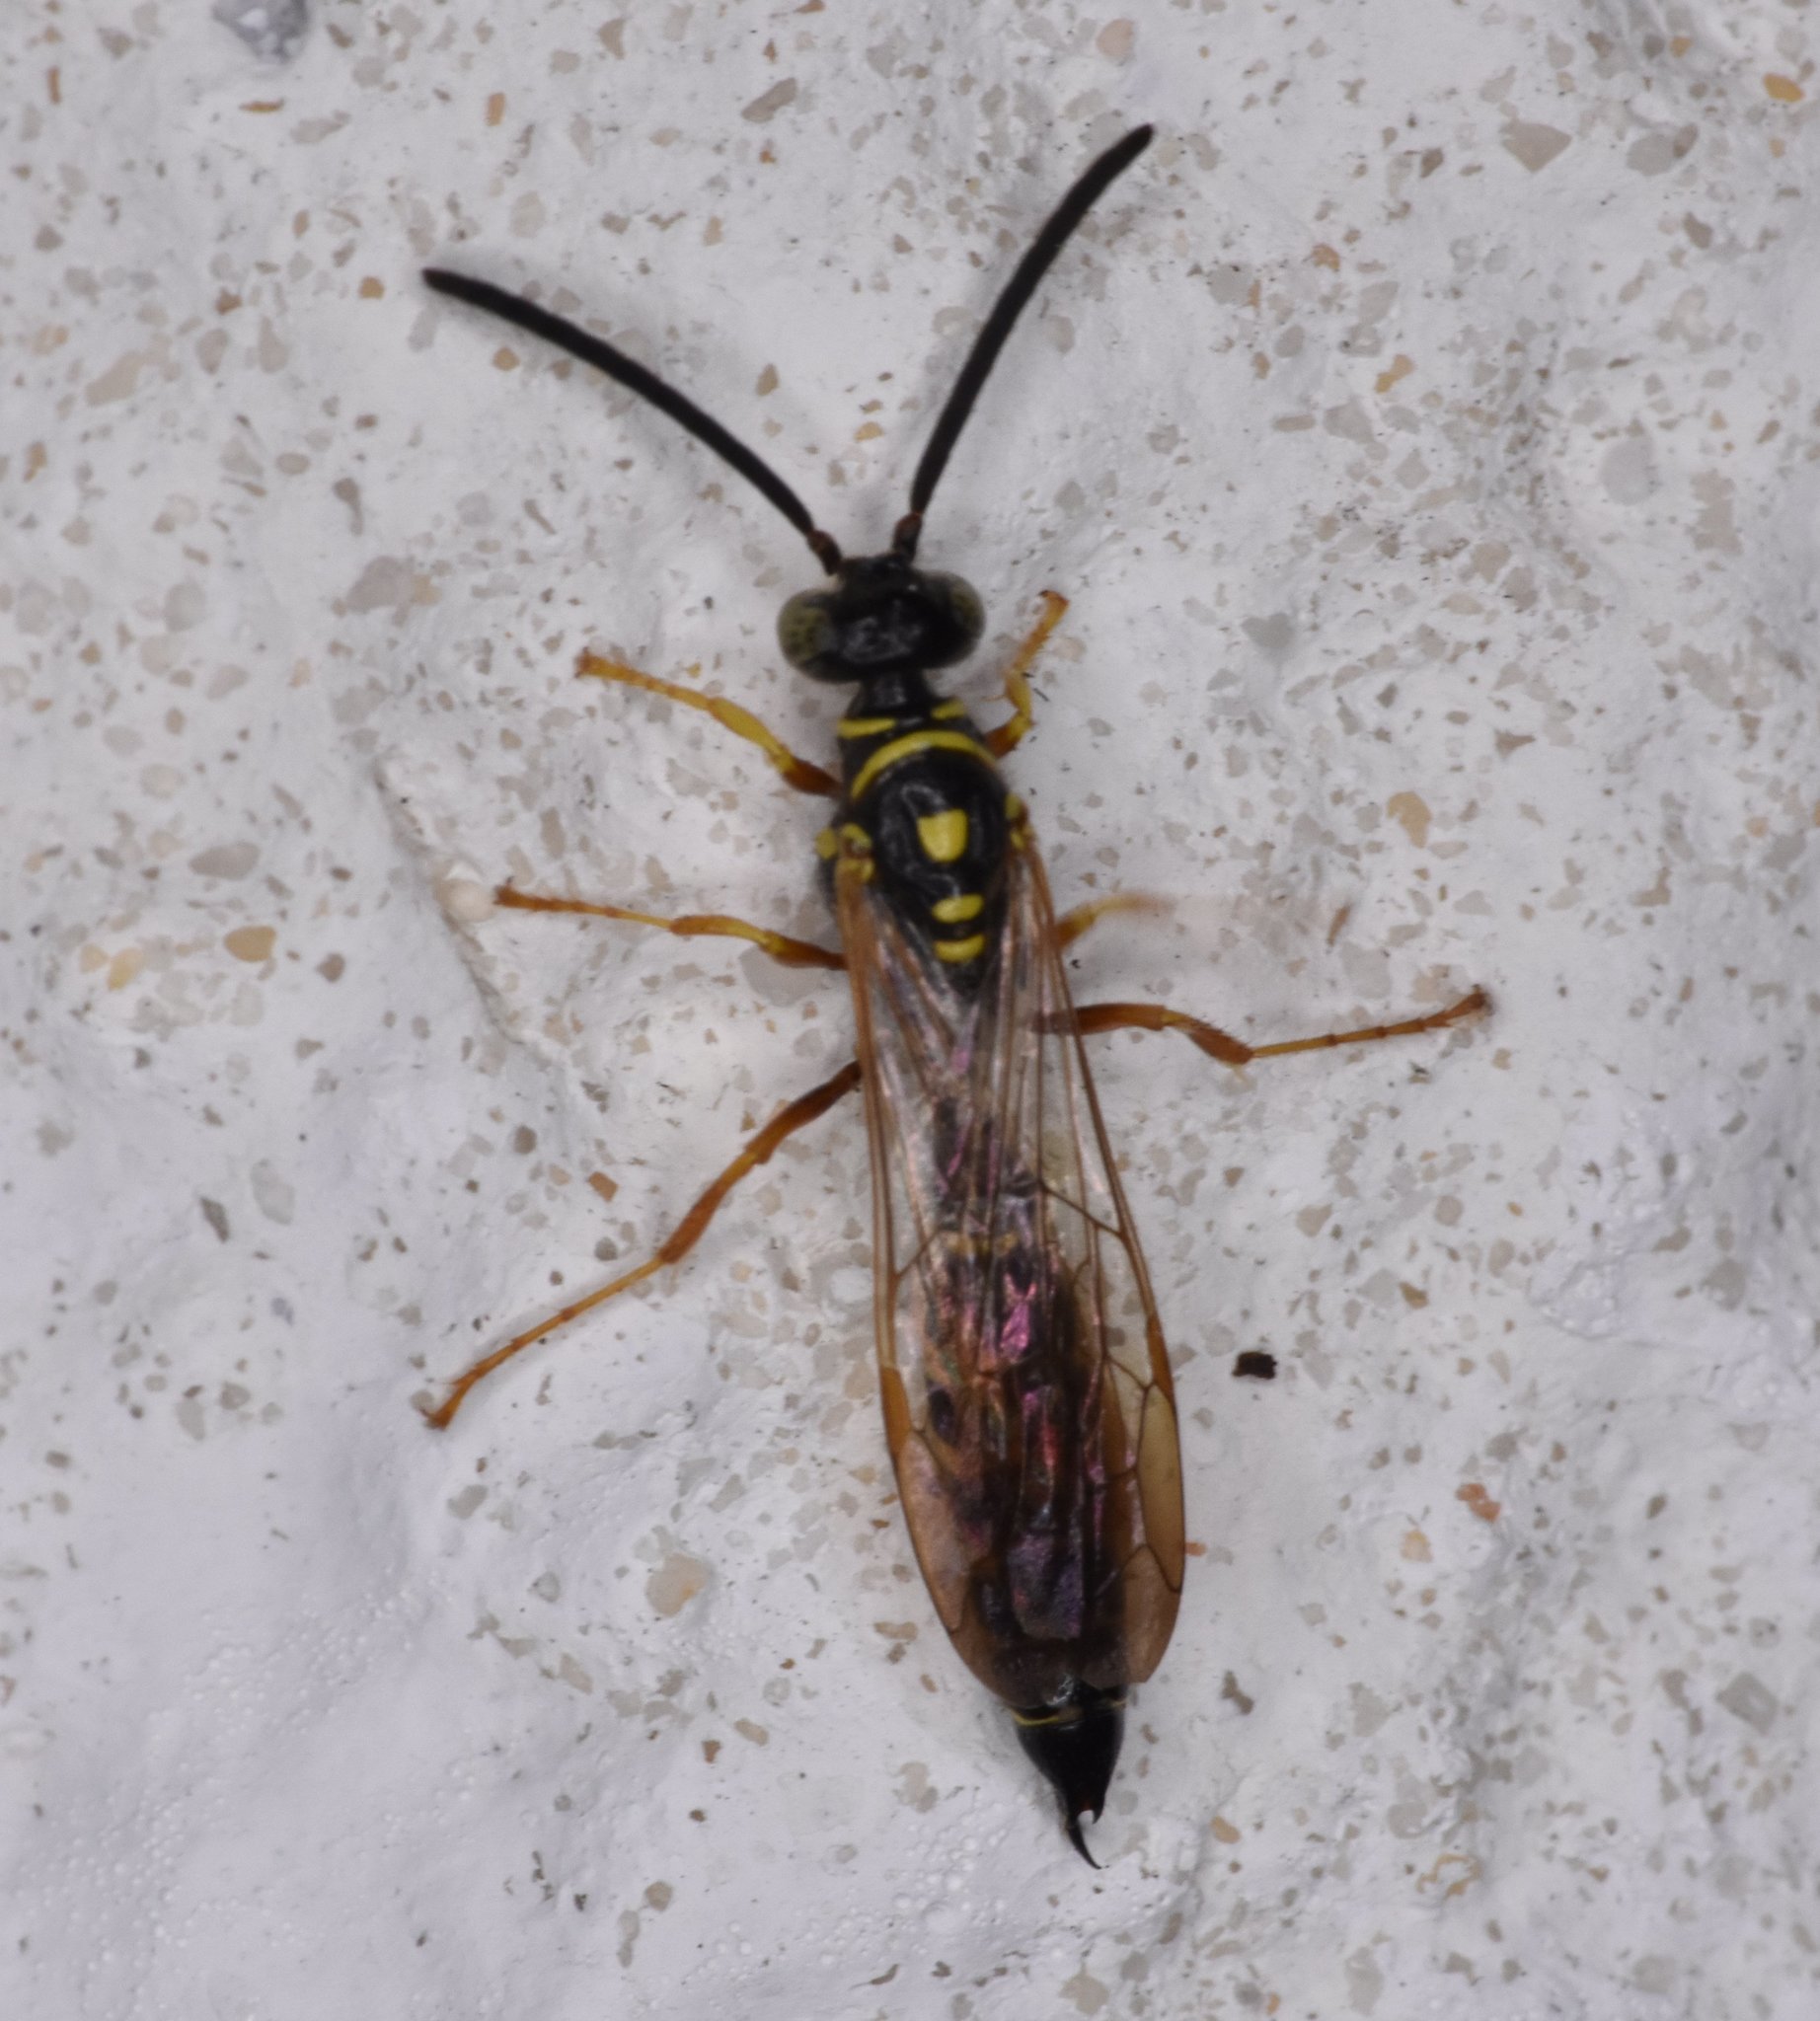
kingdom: Animalia
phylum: Arthropoda
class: Insecta
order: Hymenoptera
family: Tiphiidae
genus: Myzinum
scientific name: Myzinum
